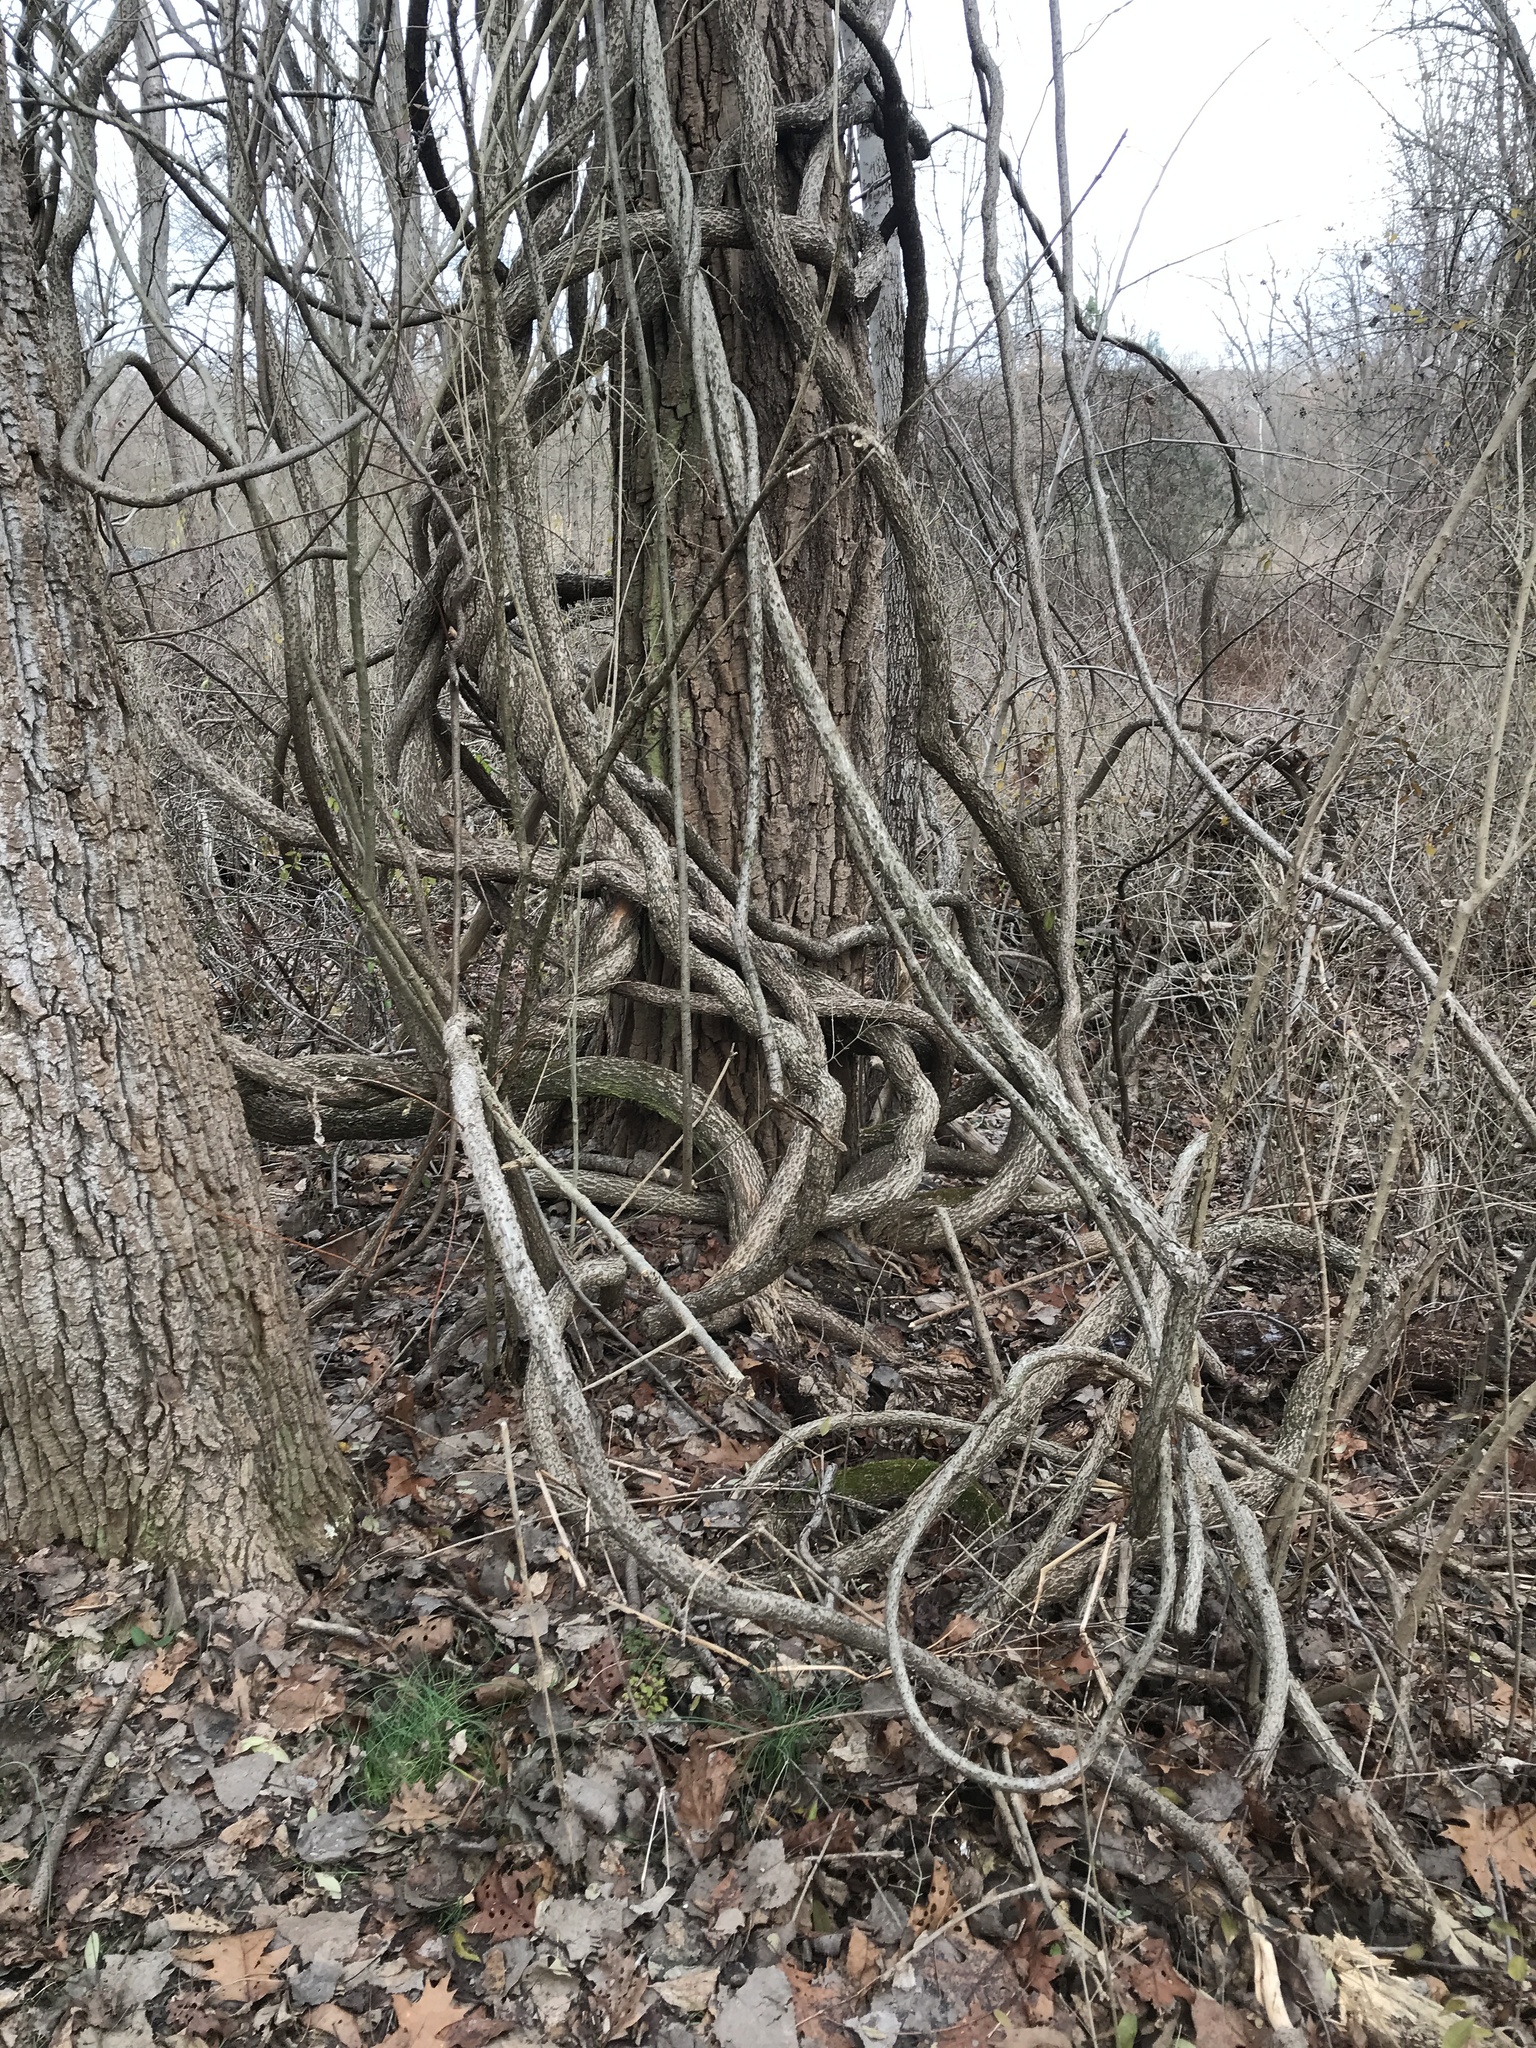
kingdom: Plantae
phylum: Tracheophyta
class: Magnoliopsida
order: Celastrales
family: Celastraceae
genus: Celastrus
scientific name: Celastrus orbiculatus
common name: Oriental bittersweet
